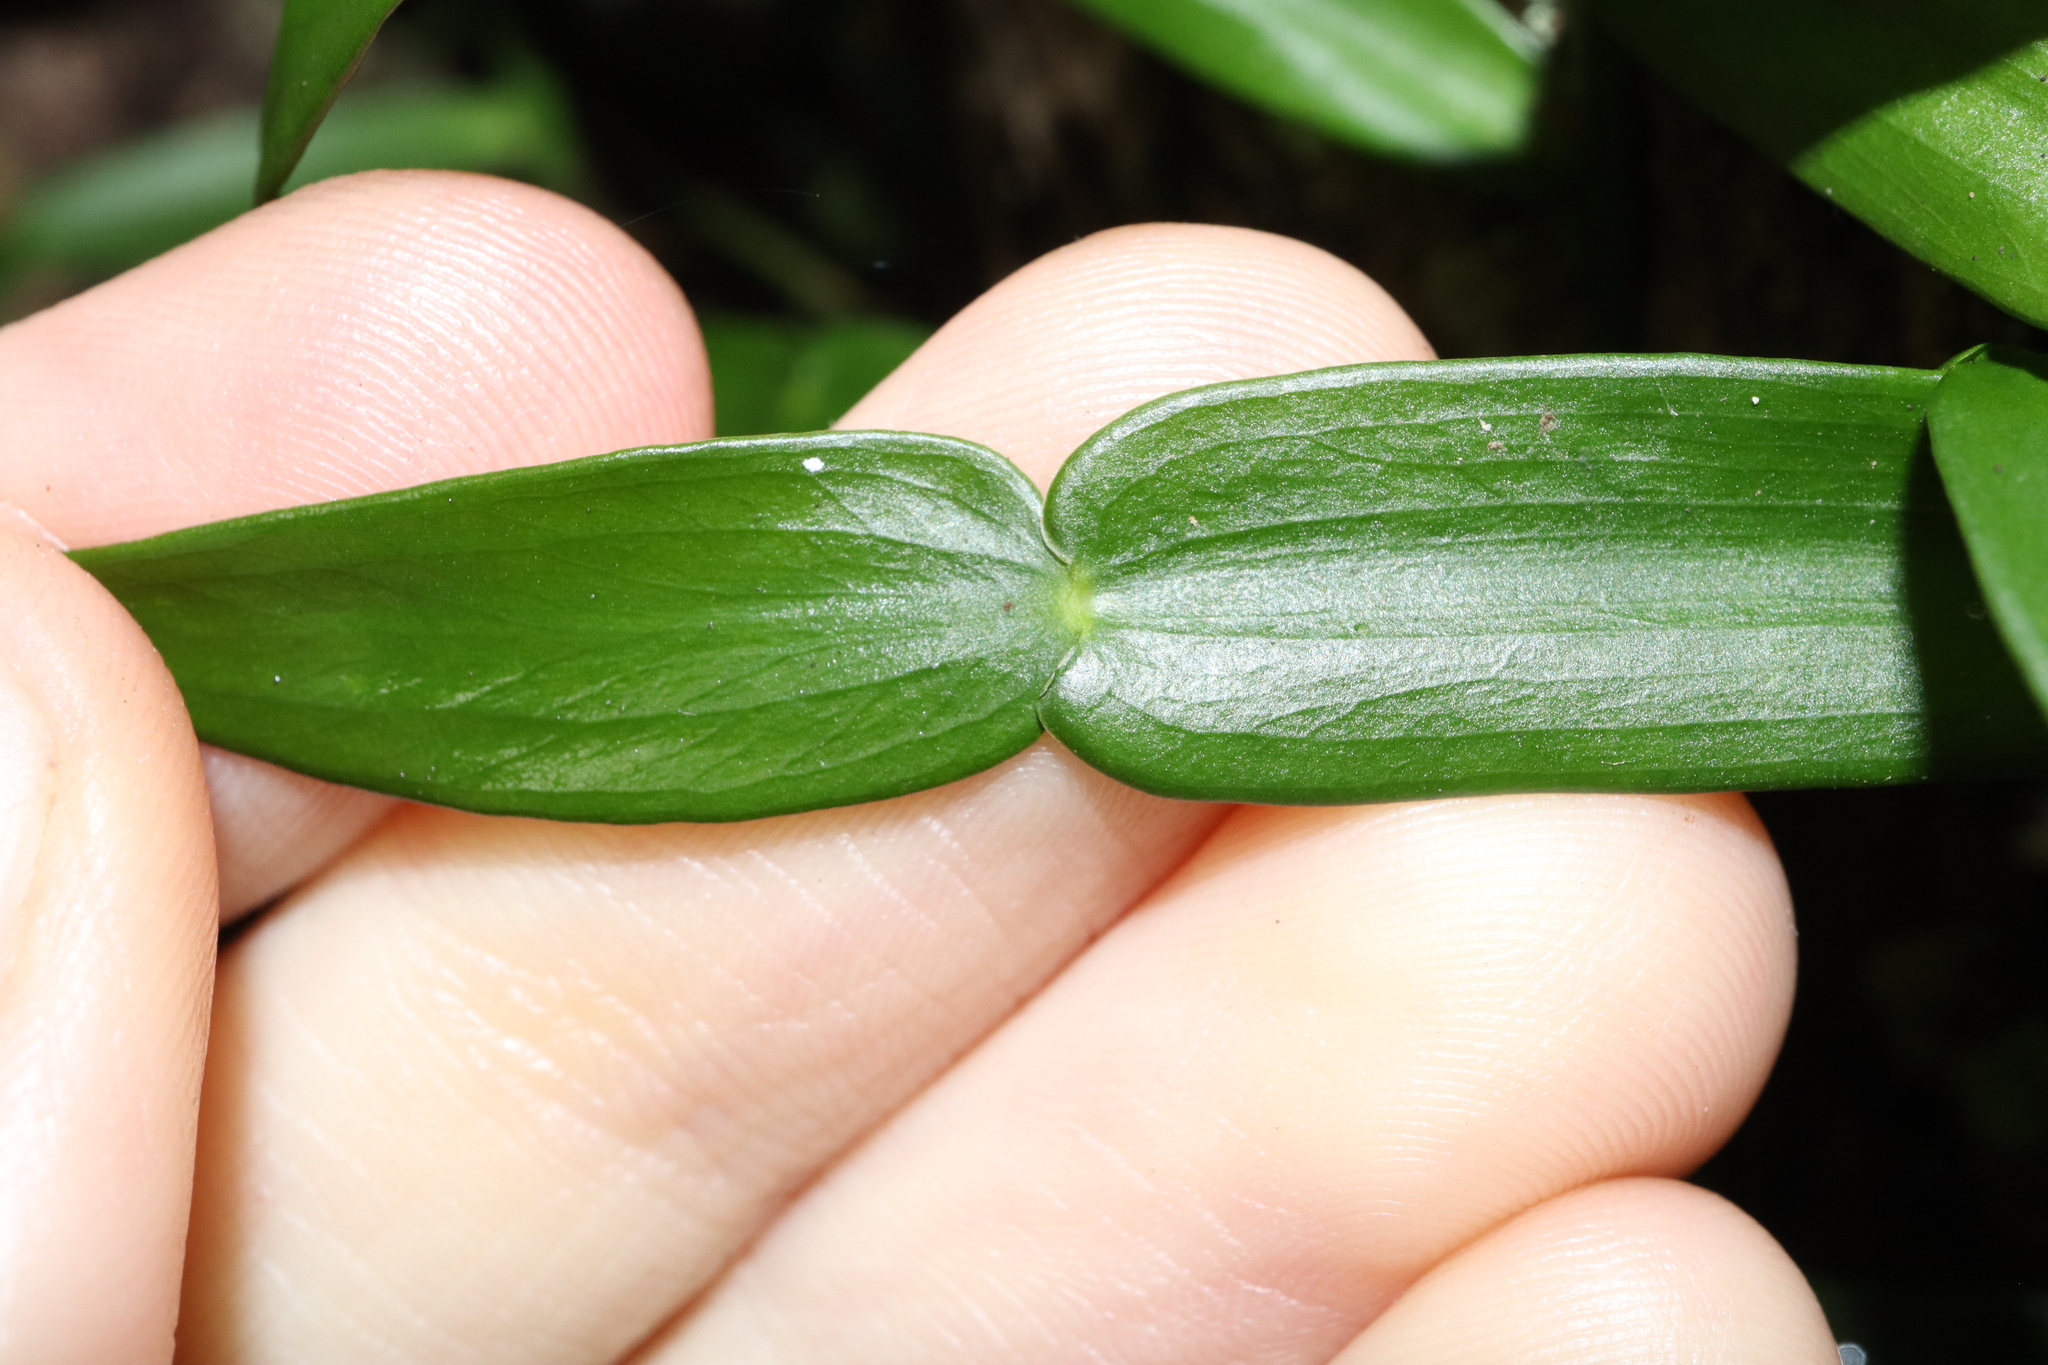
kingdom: Plantae
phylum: Tracheophyta
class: Liliopsida
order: Alismatales
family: Araceae
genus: Pothos
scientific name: Pothos longipes
